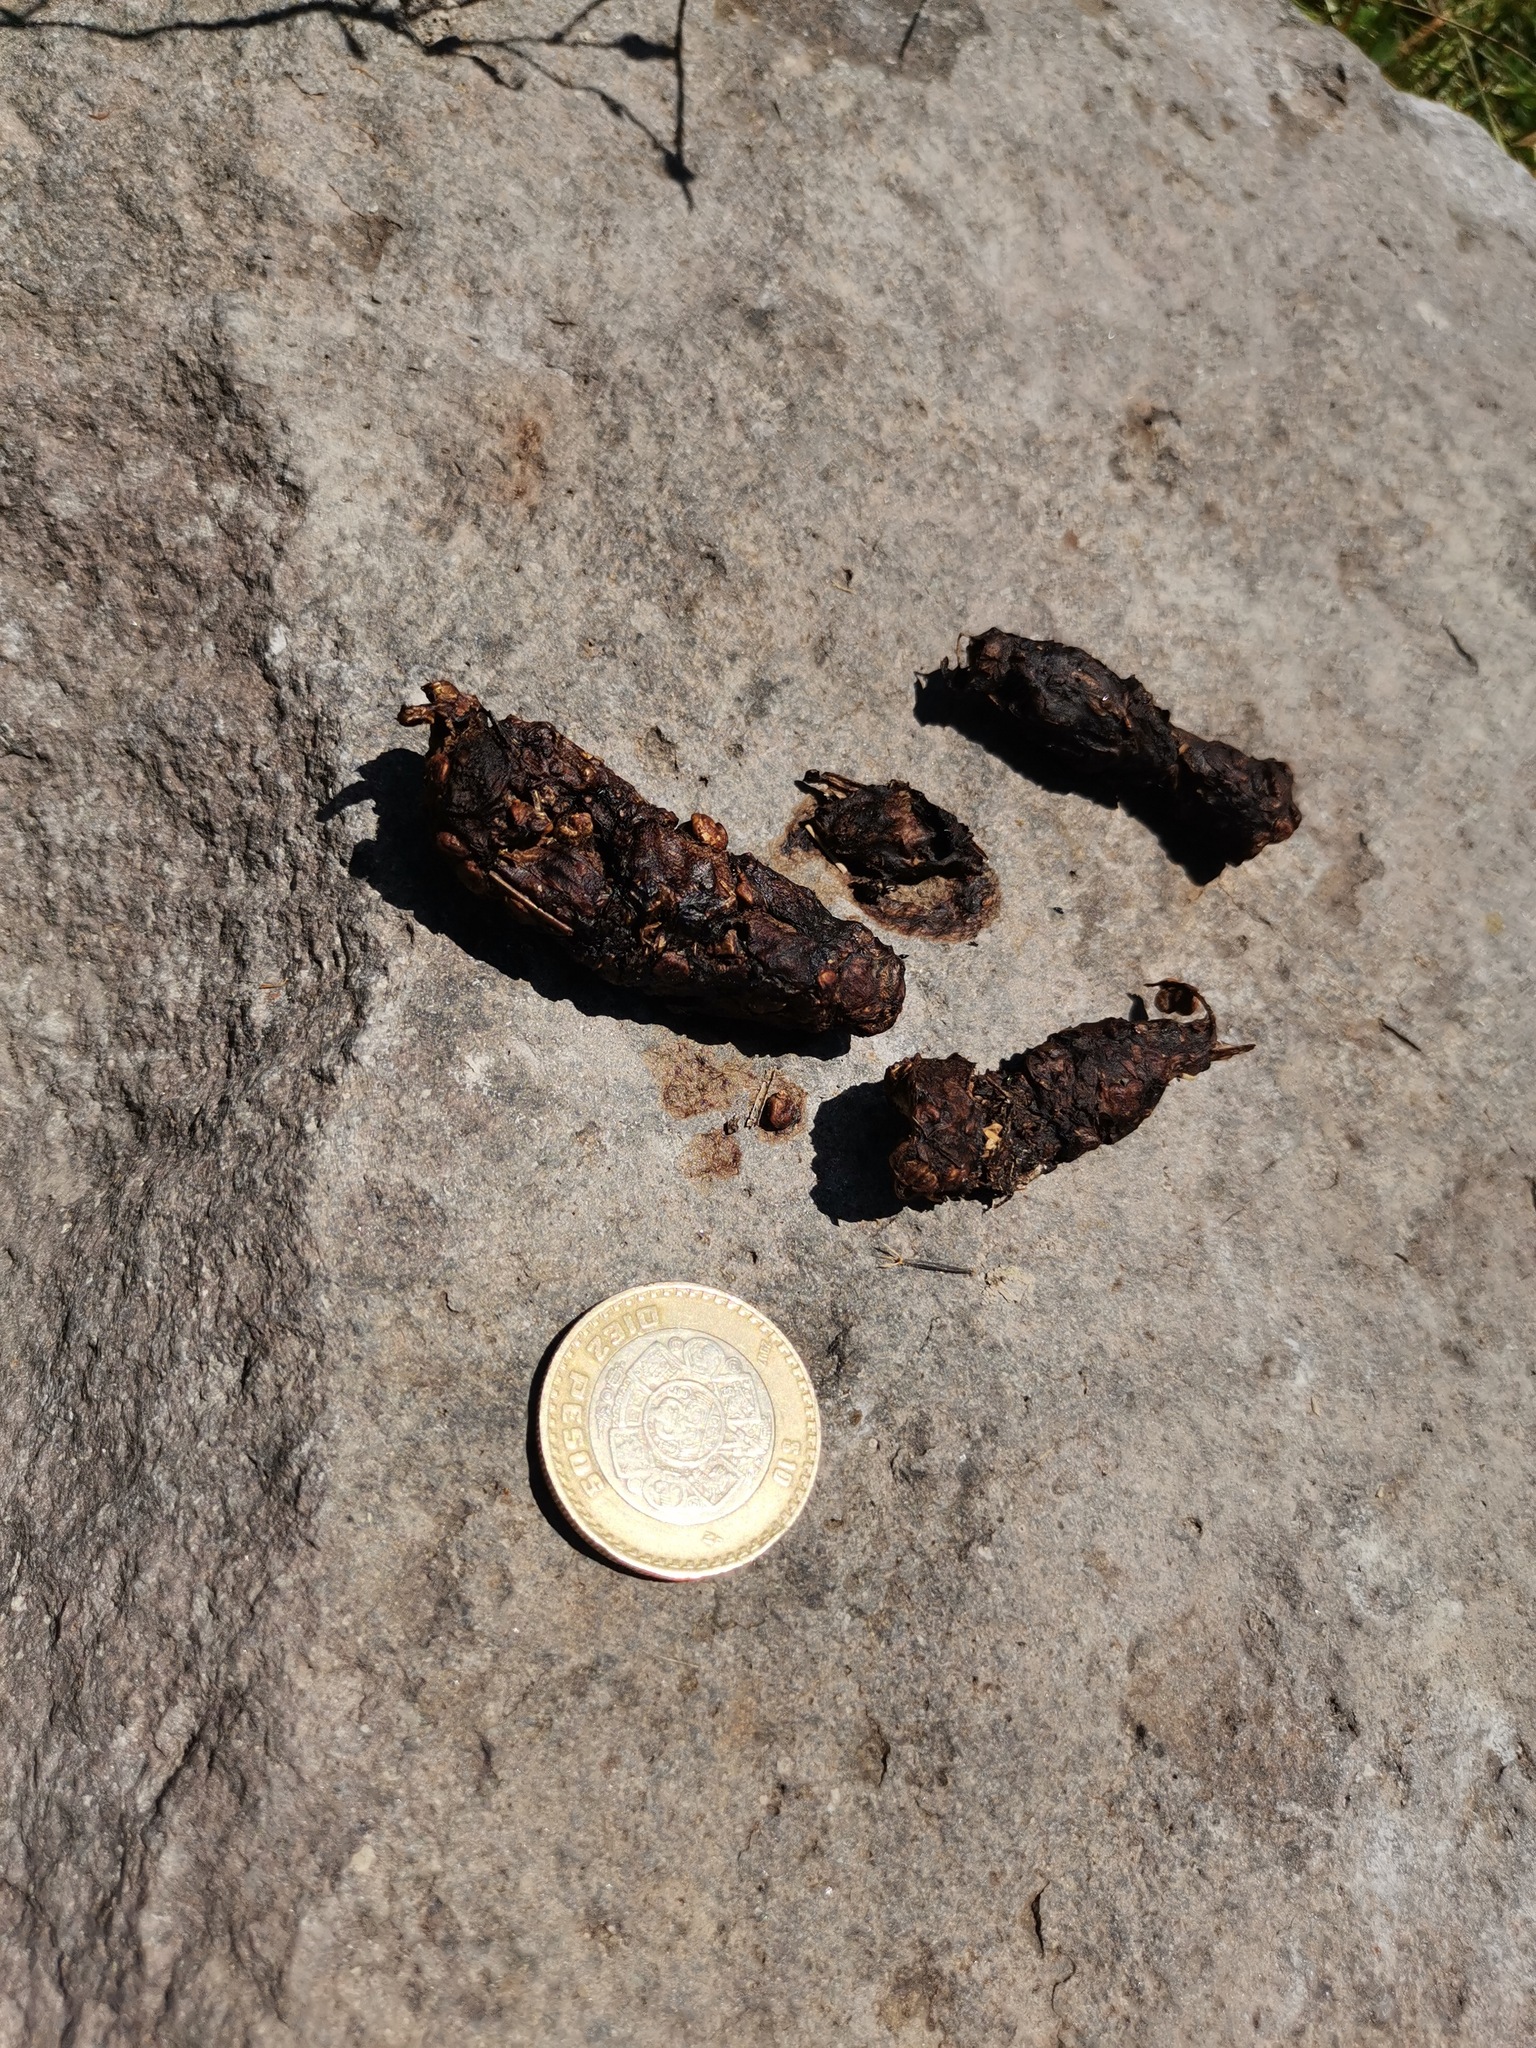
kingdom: Animalia
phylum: Chordata
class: Mammalia
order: Carnivora
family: Procyonidae
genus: Bassariscus
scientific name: Bassariscus astutus
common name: Ringtail
